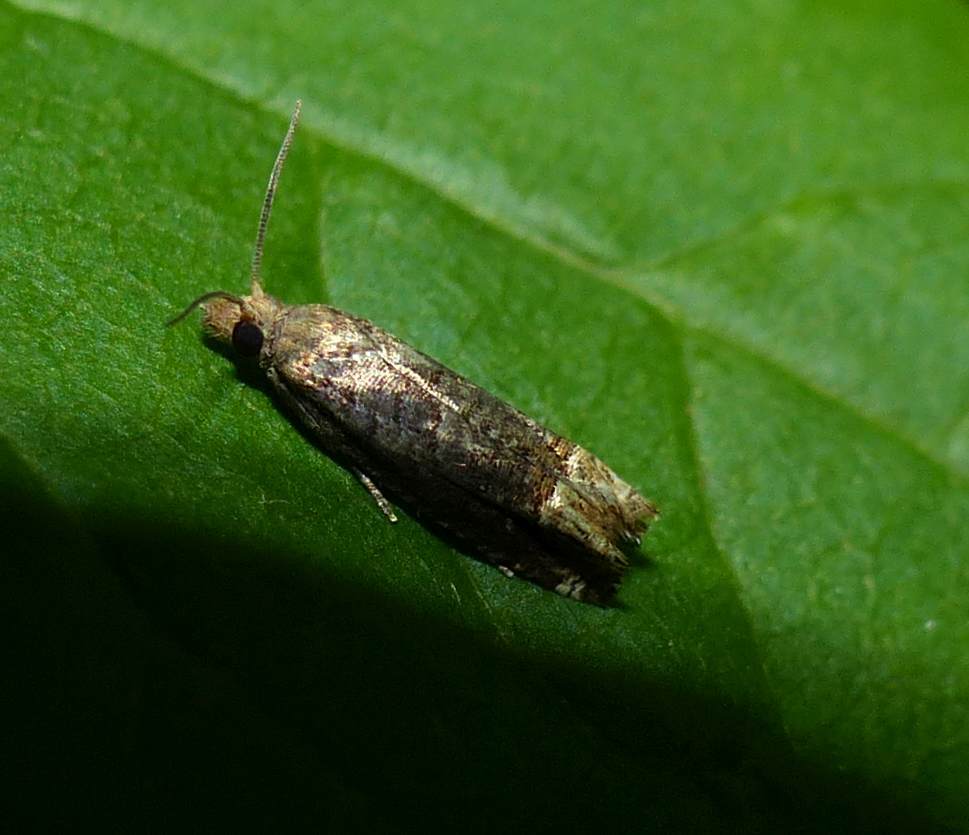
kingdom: Animalia
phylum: Arthropoda
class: Insecta
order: Lepidoptera
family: Tortricidae
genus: Eucosma
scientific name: Eucosma ochroterminana
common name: Buff-tipped eucosma moth
